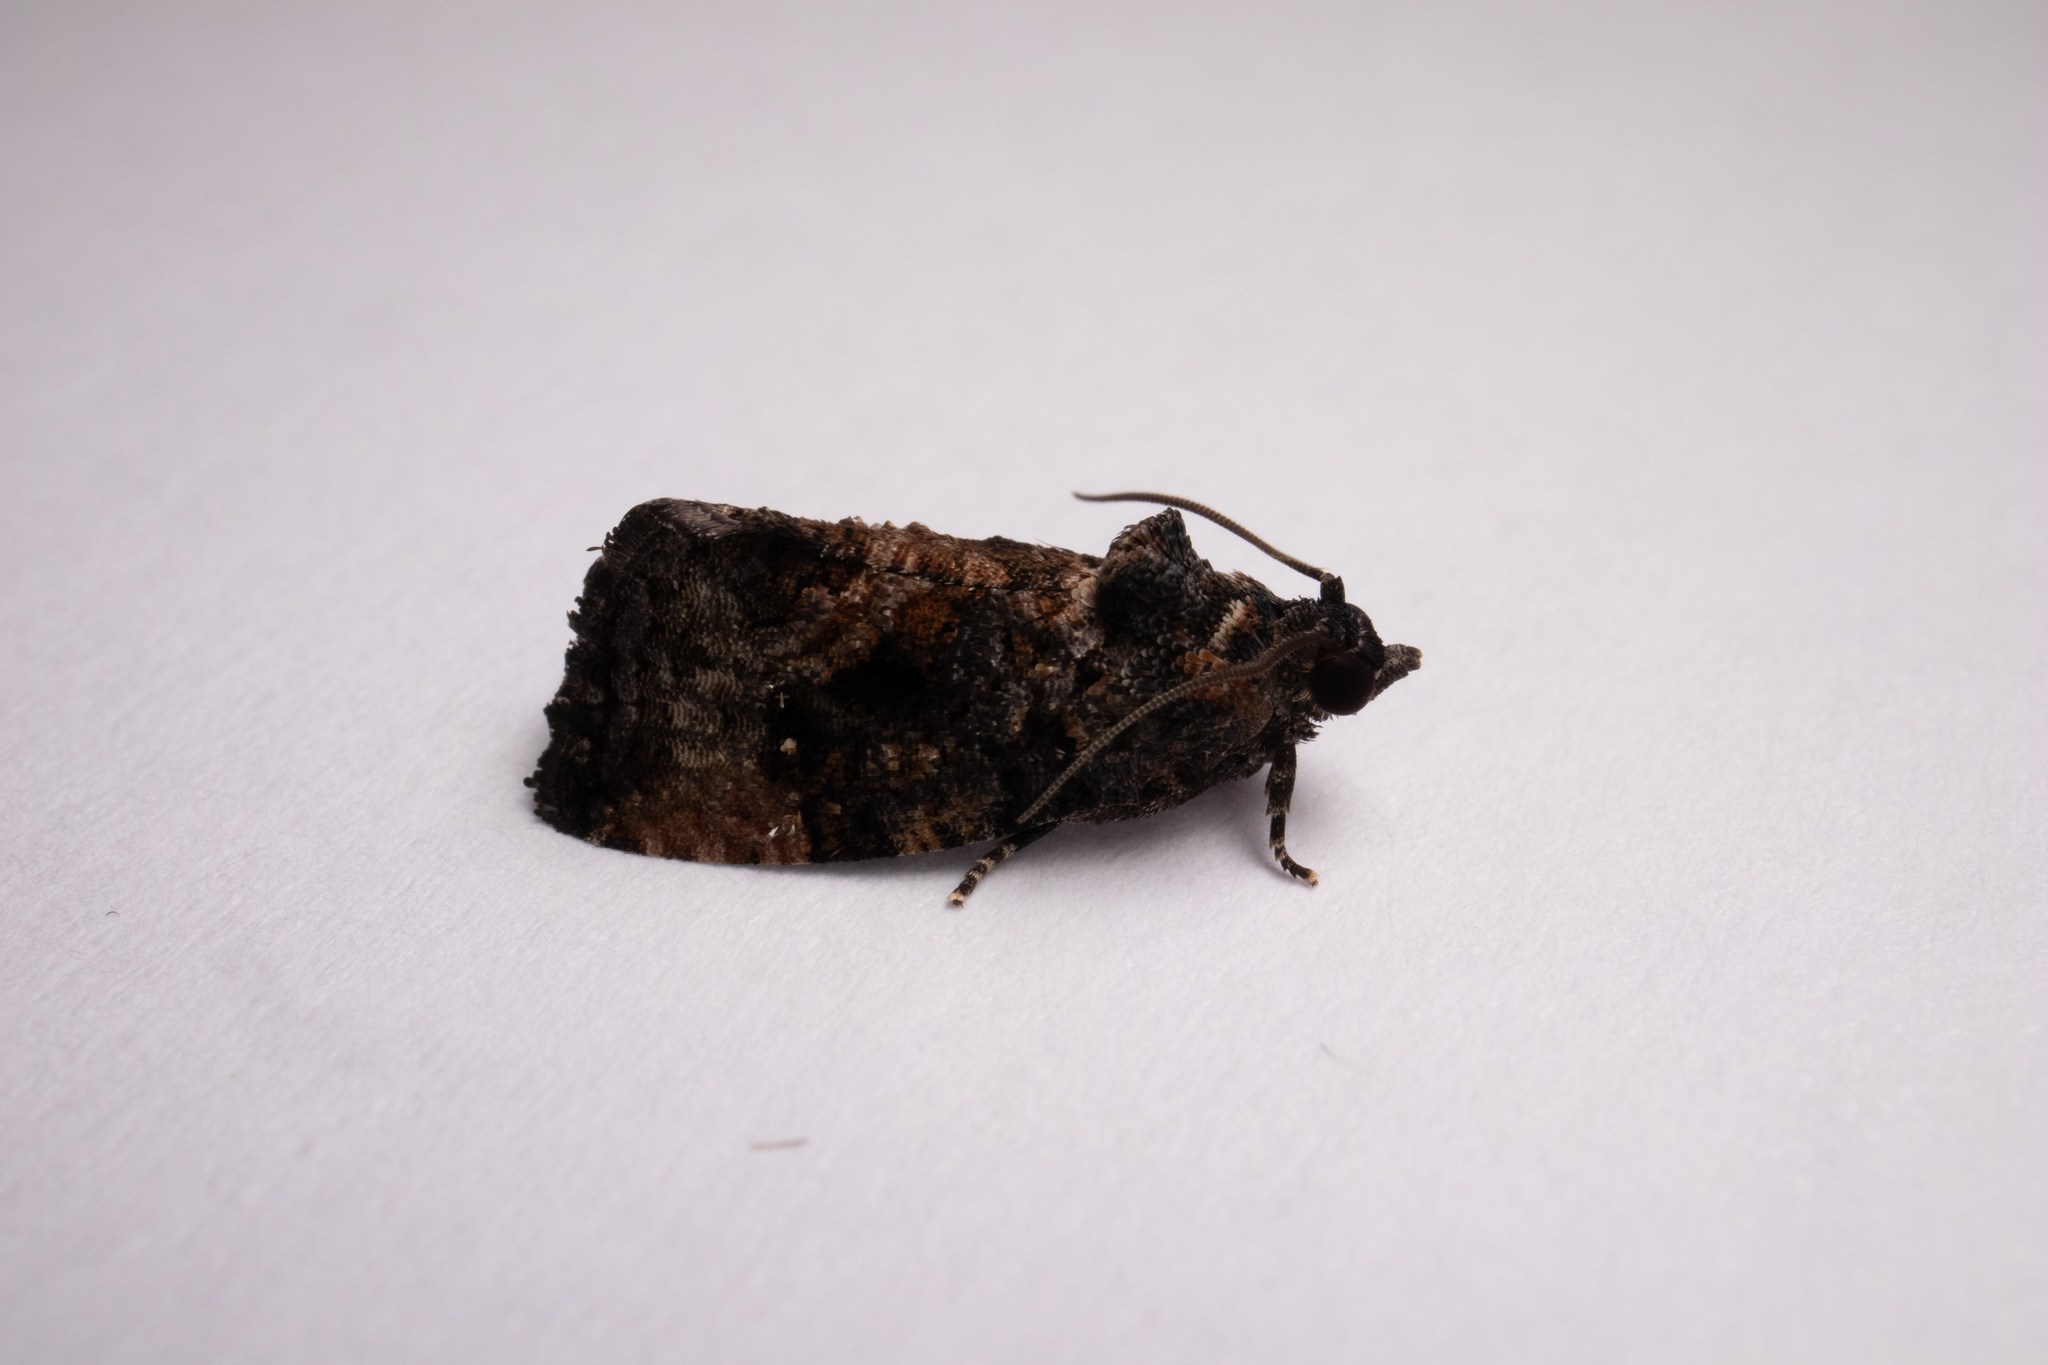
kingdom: Animalia
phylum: Arthropoda
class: Insecta
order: Lepidoptera
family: Tortricidae
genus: Gymnandrosoma
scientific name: Gymnandrosoma punctidiscanum
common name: Dotted ecdytolopha moth
